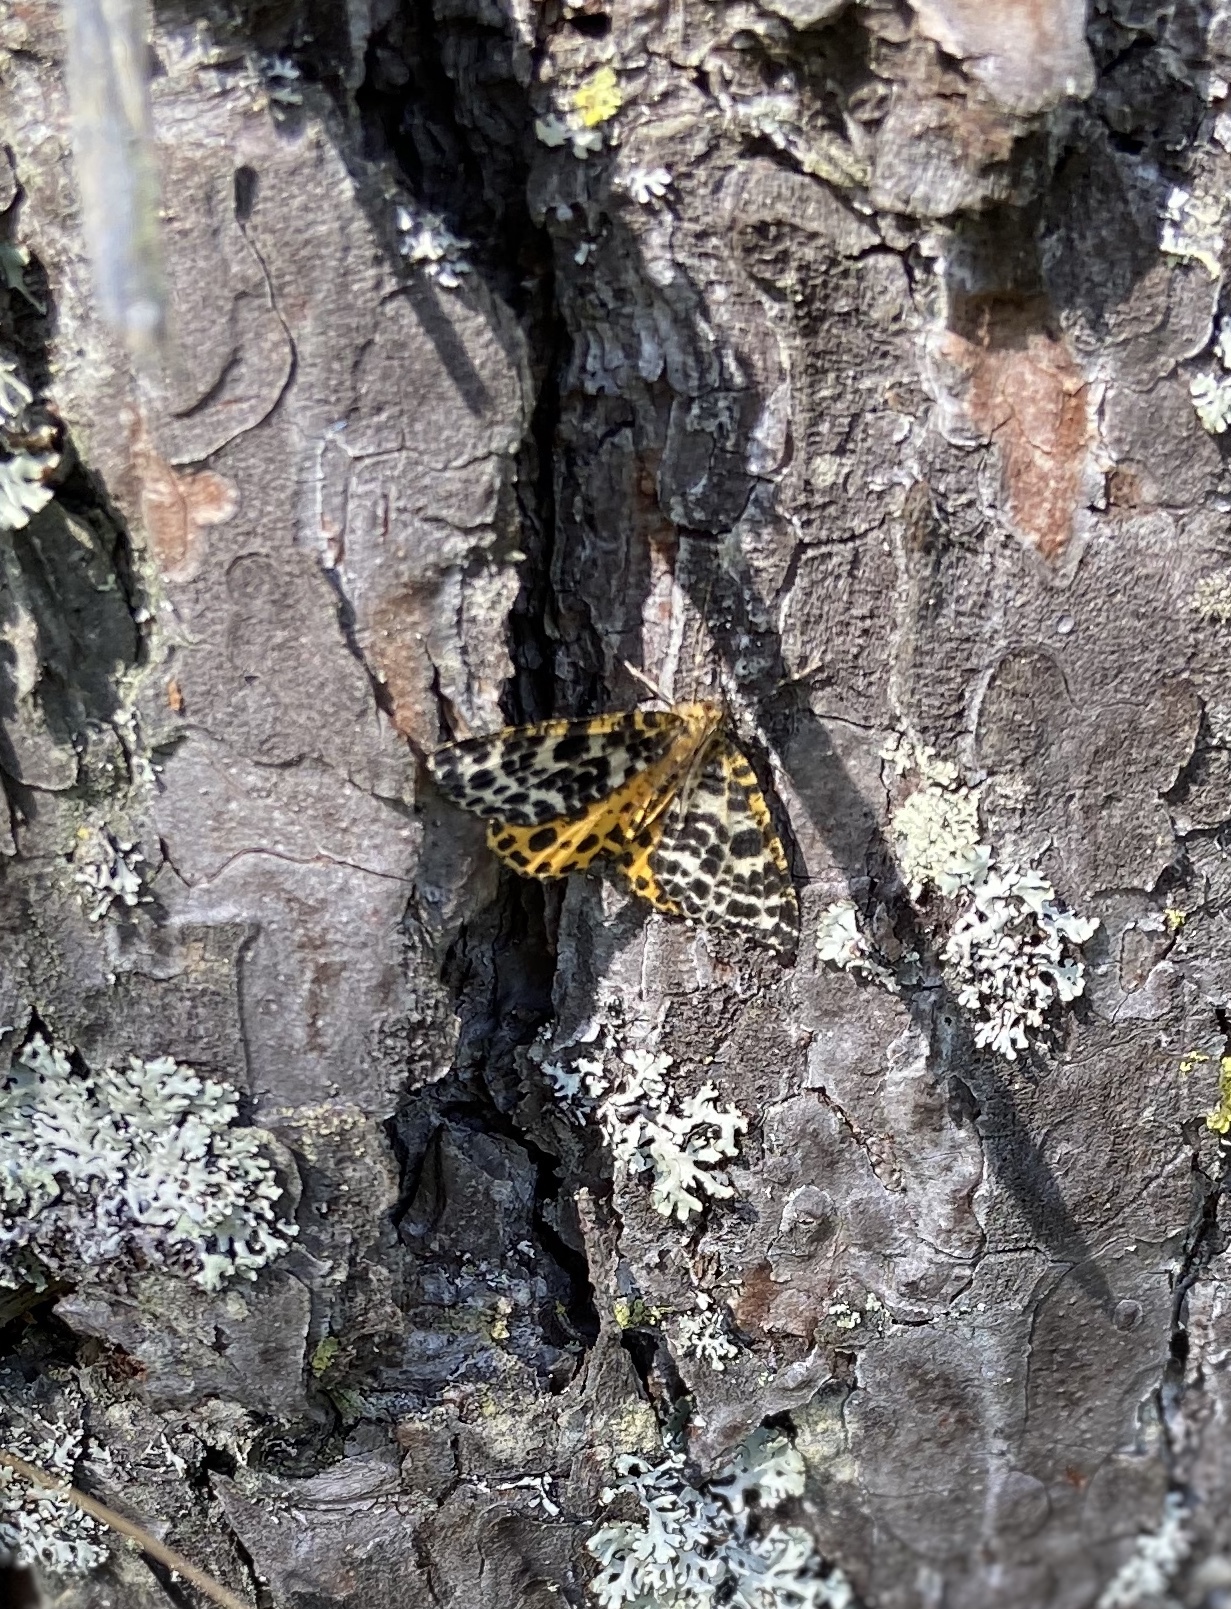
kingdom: Animalia
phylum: Arthropoda
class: Insecta
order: Lepidoptera
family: Geometridae
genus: Arichanna
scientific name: Arichanna melanaria
